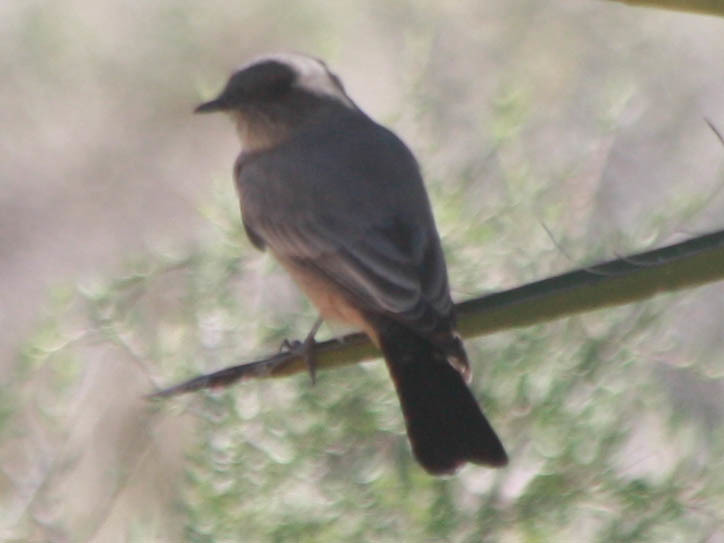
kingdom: Animalia
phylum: Chordata
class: Aves
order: Passeriformes
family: Tyrannidae
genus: Sayornis
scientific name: Sayornis saya
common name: Say's phoebe
